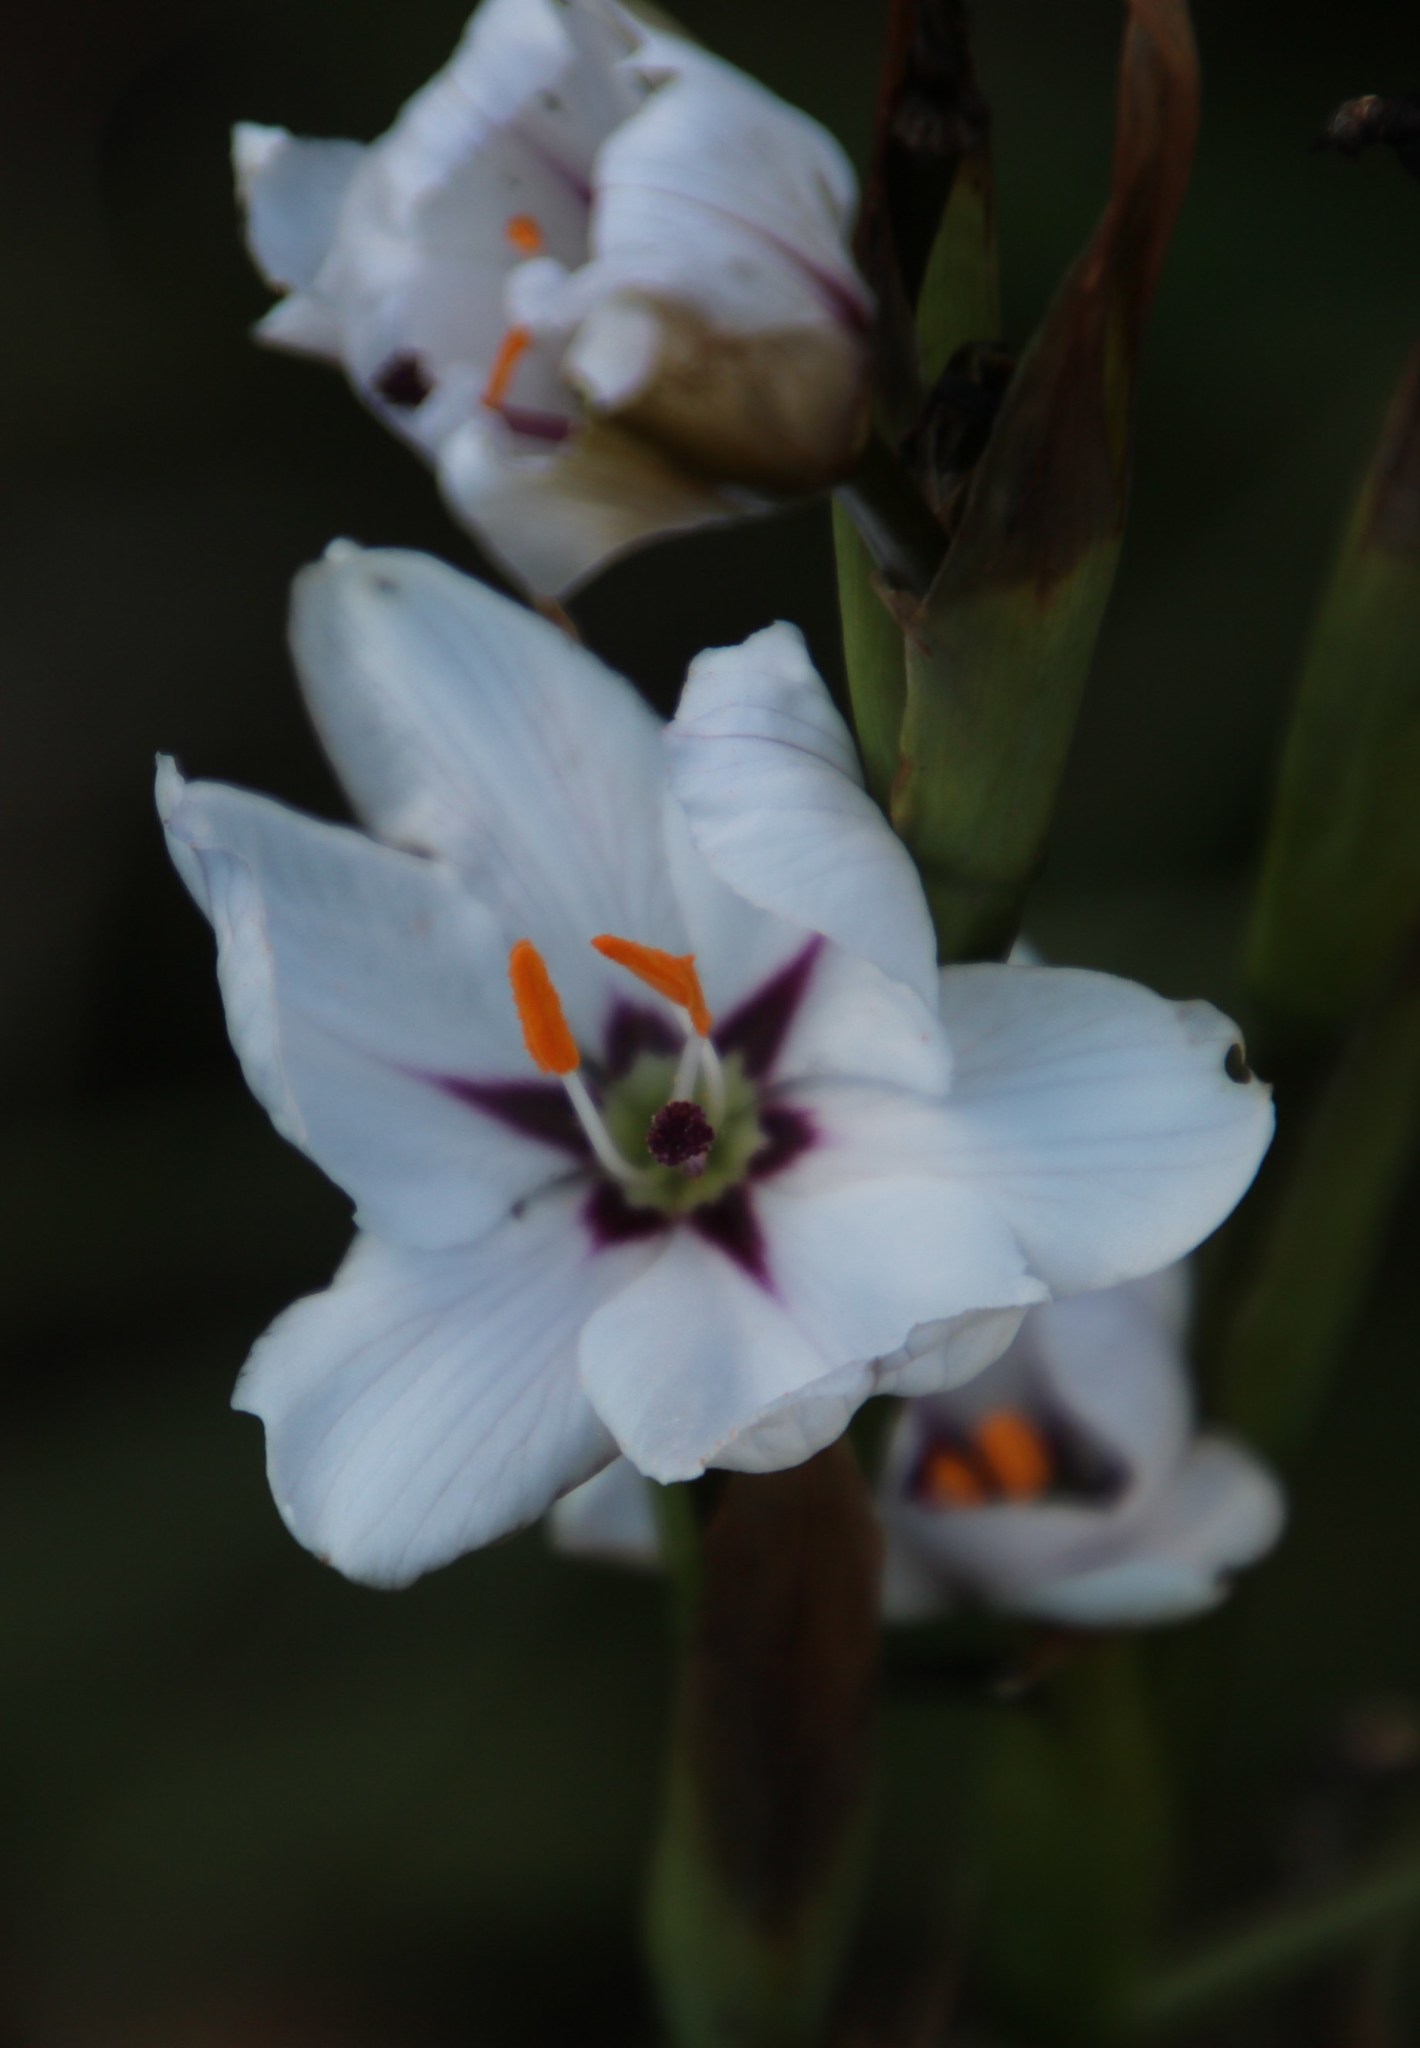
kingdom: Plantae
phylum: Tracheophyta
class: Liliopsida
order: Asparagales
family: Iridaceae
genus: Aristea
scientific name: Aristea spiralis
